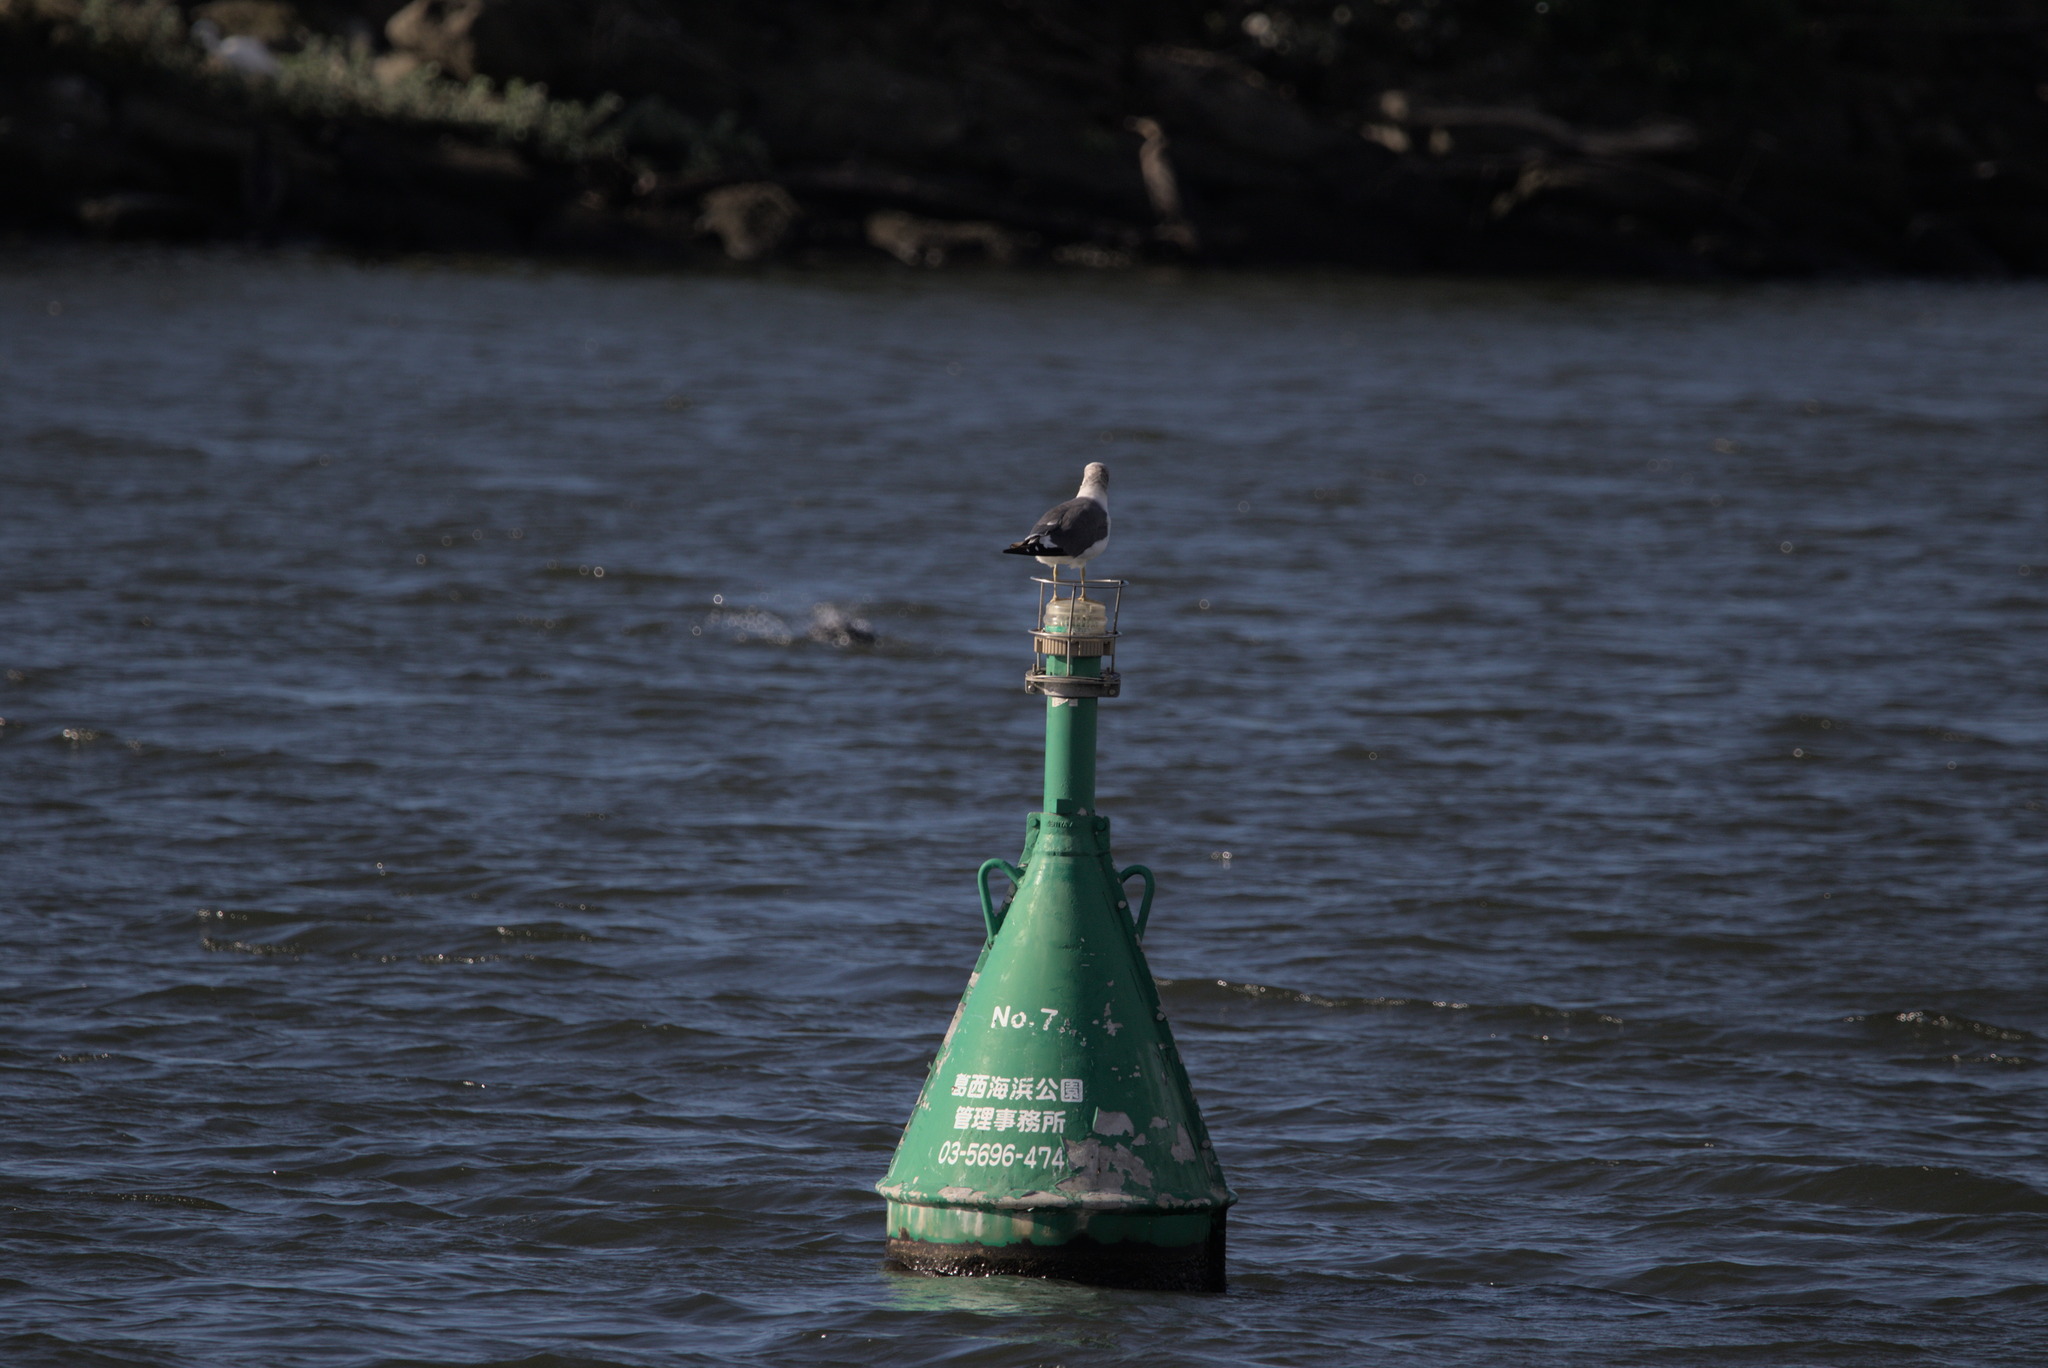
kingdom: Animalia
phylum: Chordata
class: Aves
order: Charadriiformes
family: Laridae
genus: Larus
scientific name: Larus crassirostris
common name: Black-tailed gull
